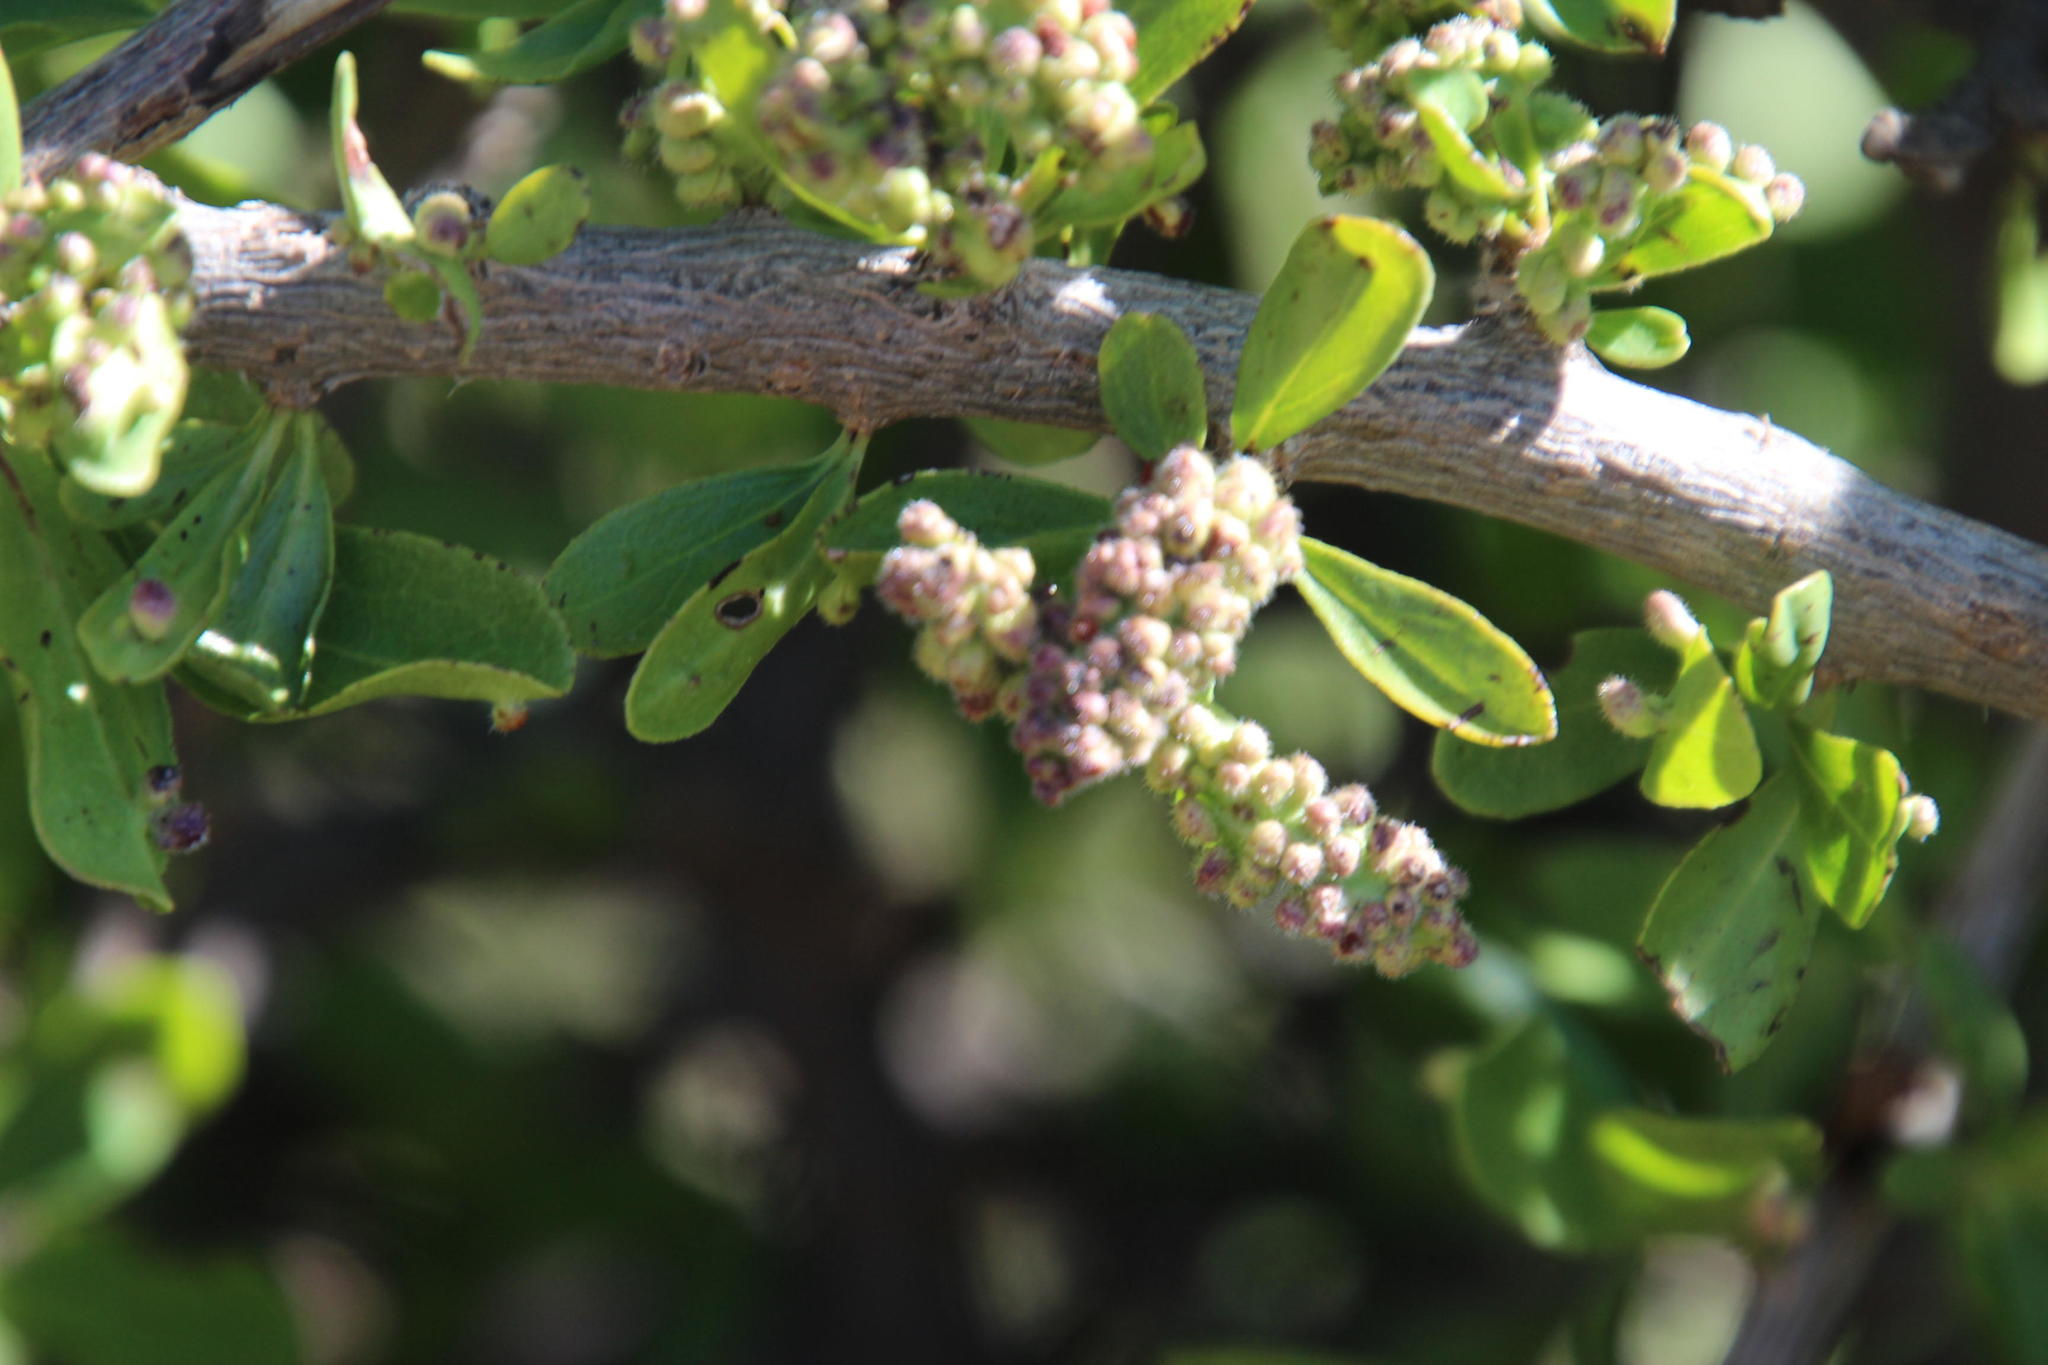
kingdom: Plantae
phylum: Tracheophyta
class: Magnoliopsida
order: Boraginales
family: Ehretiaceae
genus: Ehretia
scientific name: Ehretia rigida
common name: Cape lilac
